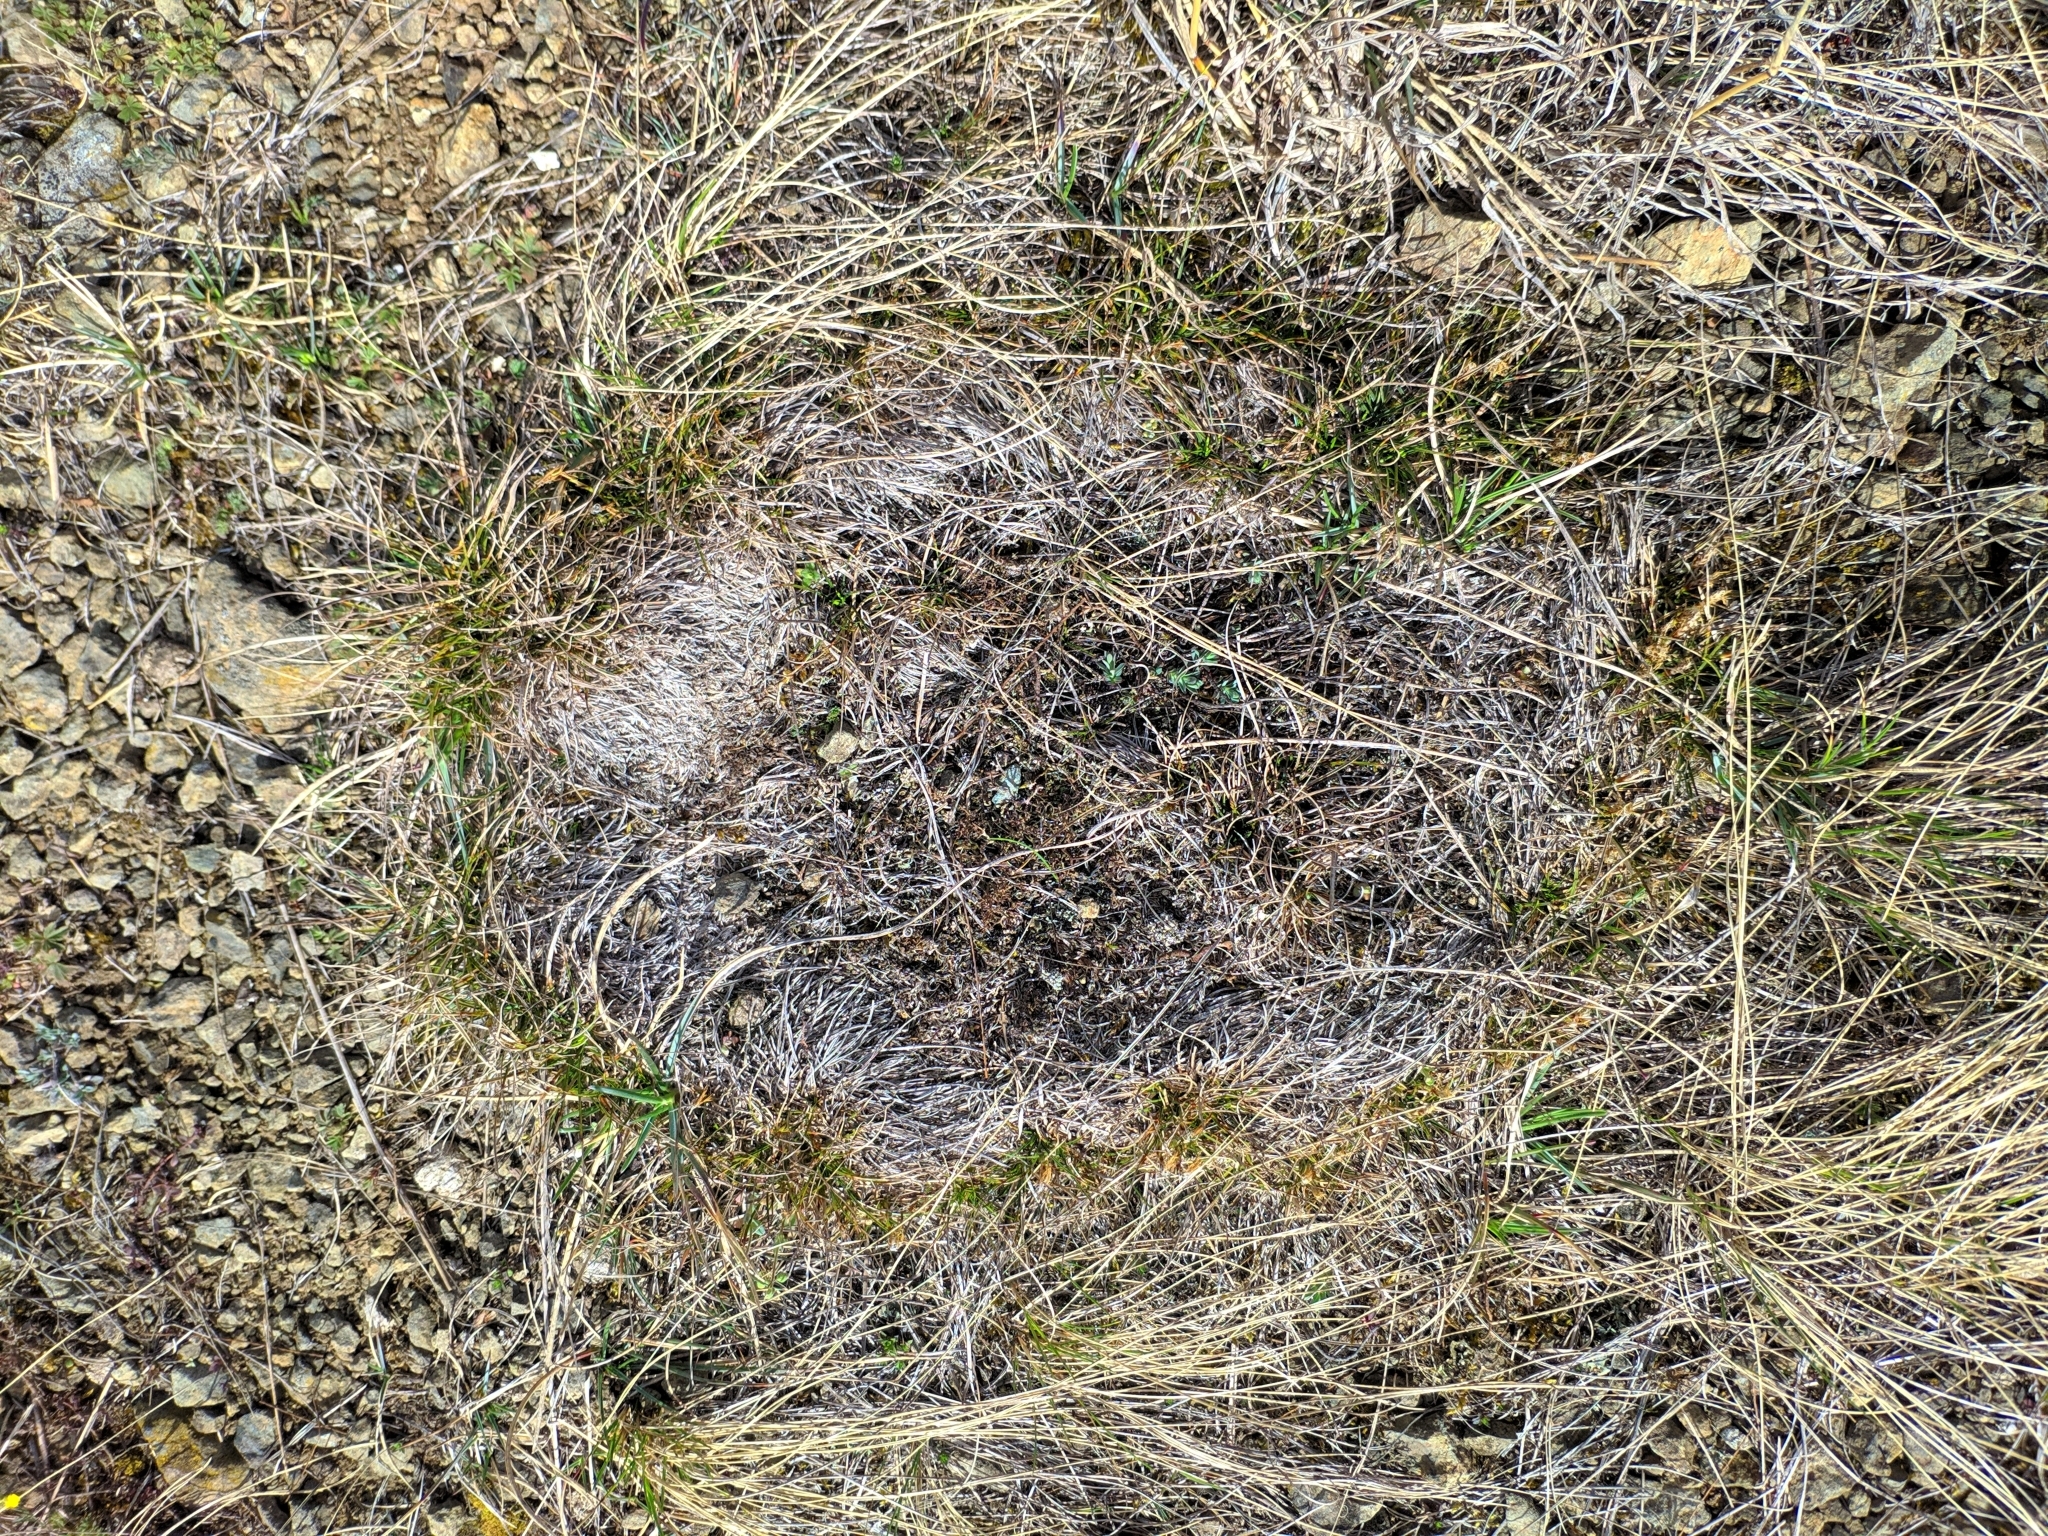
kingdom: Plantae
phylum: Tracheophyta
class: Liliopsida
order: Poales
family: Cyperaceae
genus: Carex
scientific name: Carex humilis
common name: Dwarf sedge
